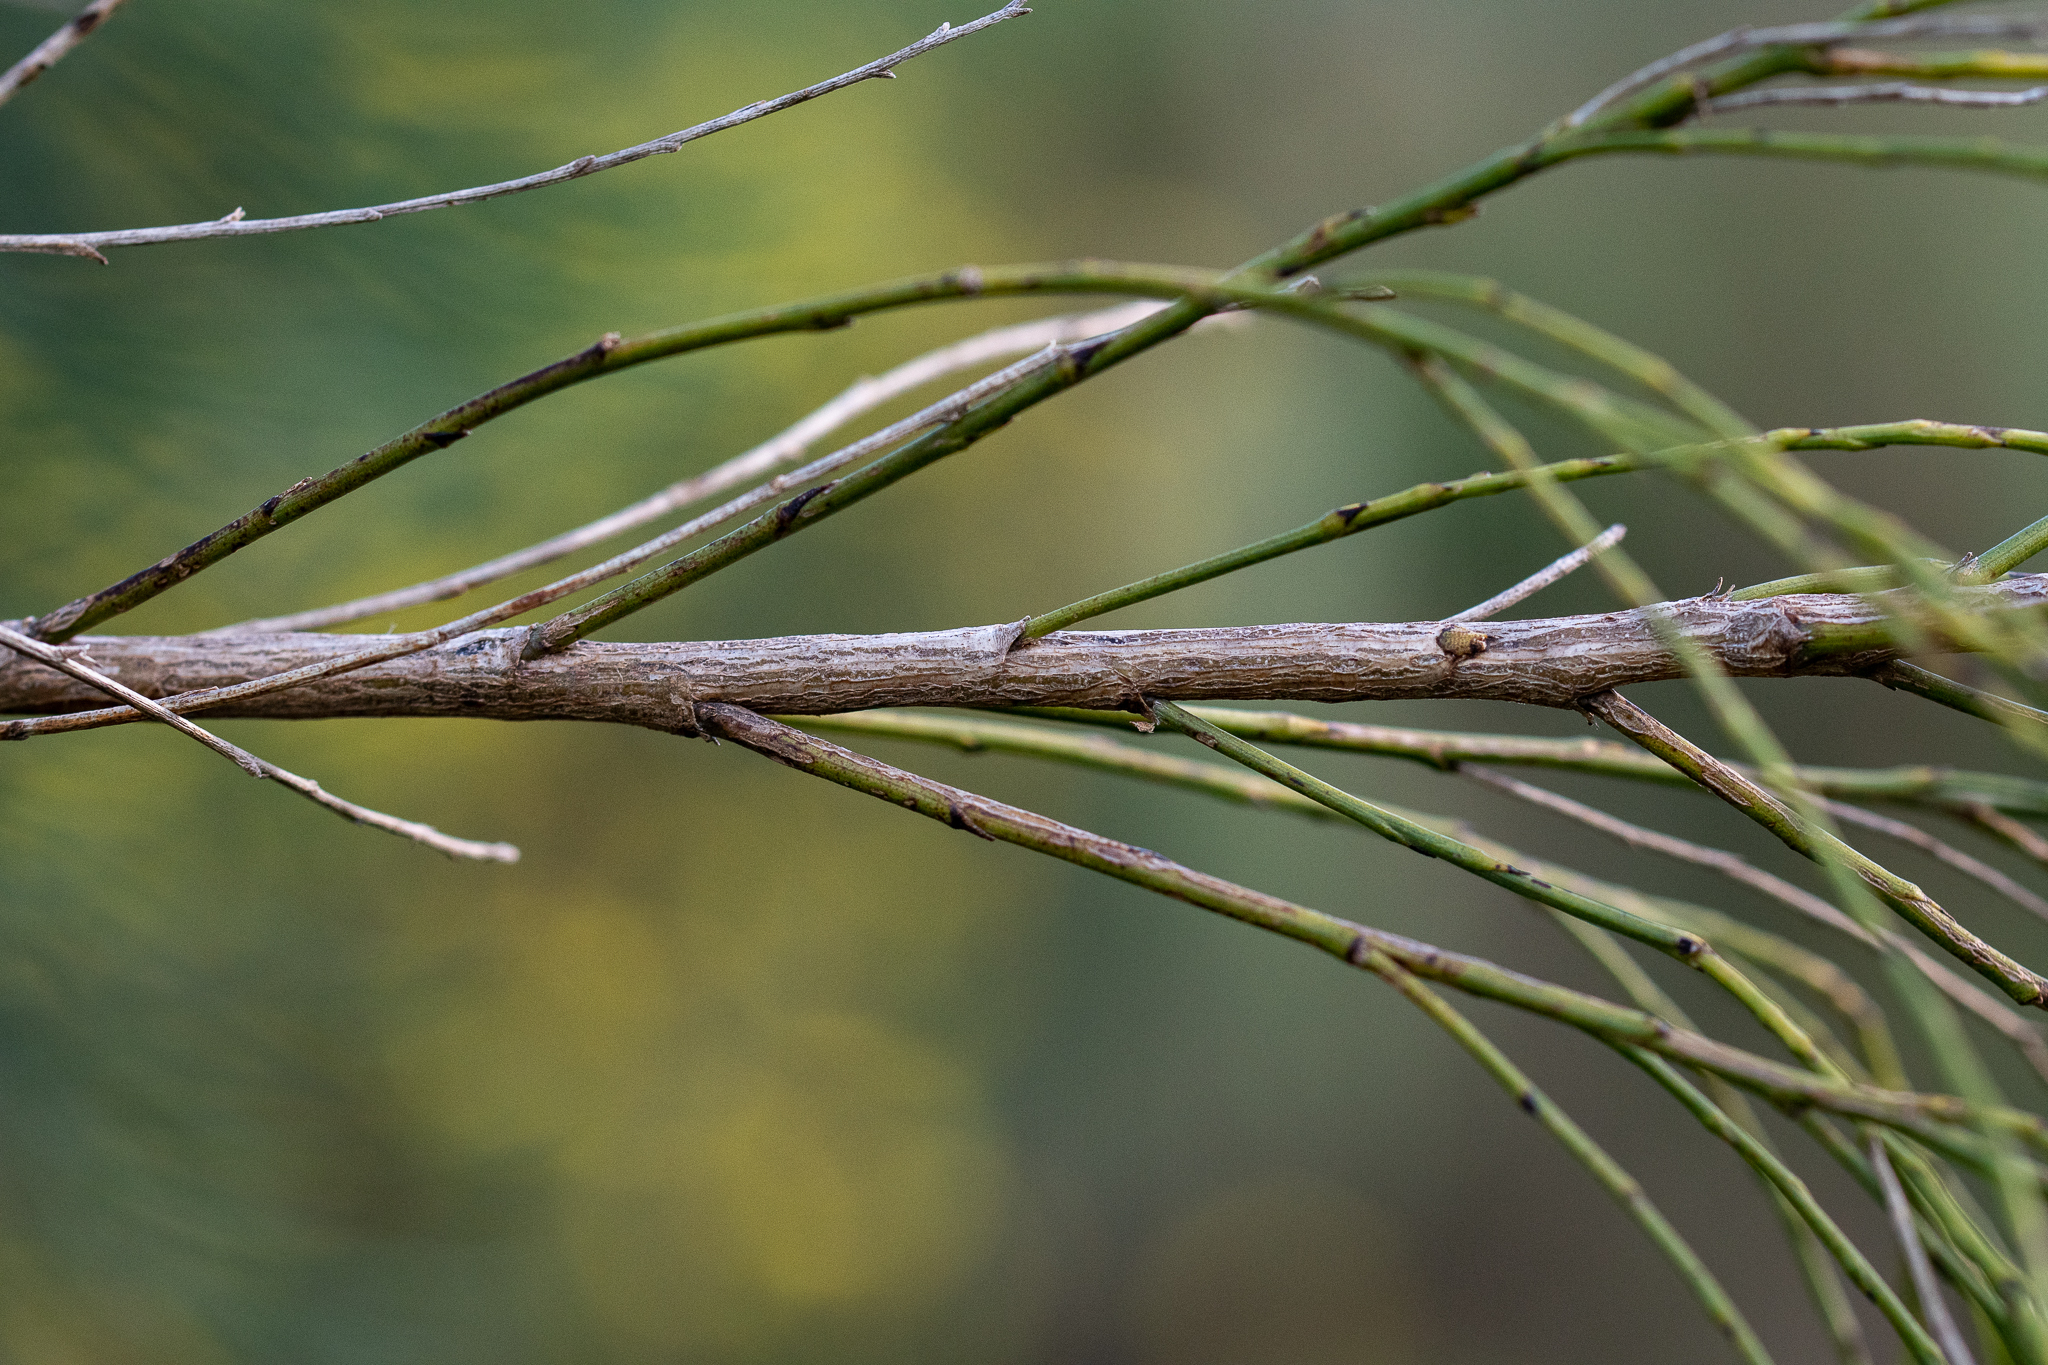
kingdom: Plantae
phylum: Tracheophyta
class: Magnoliopsida
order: Fabales
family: Fabaceae
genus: Psoralea
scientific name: Psoralea usitata
